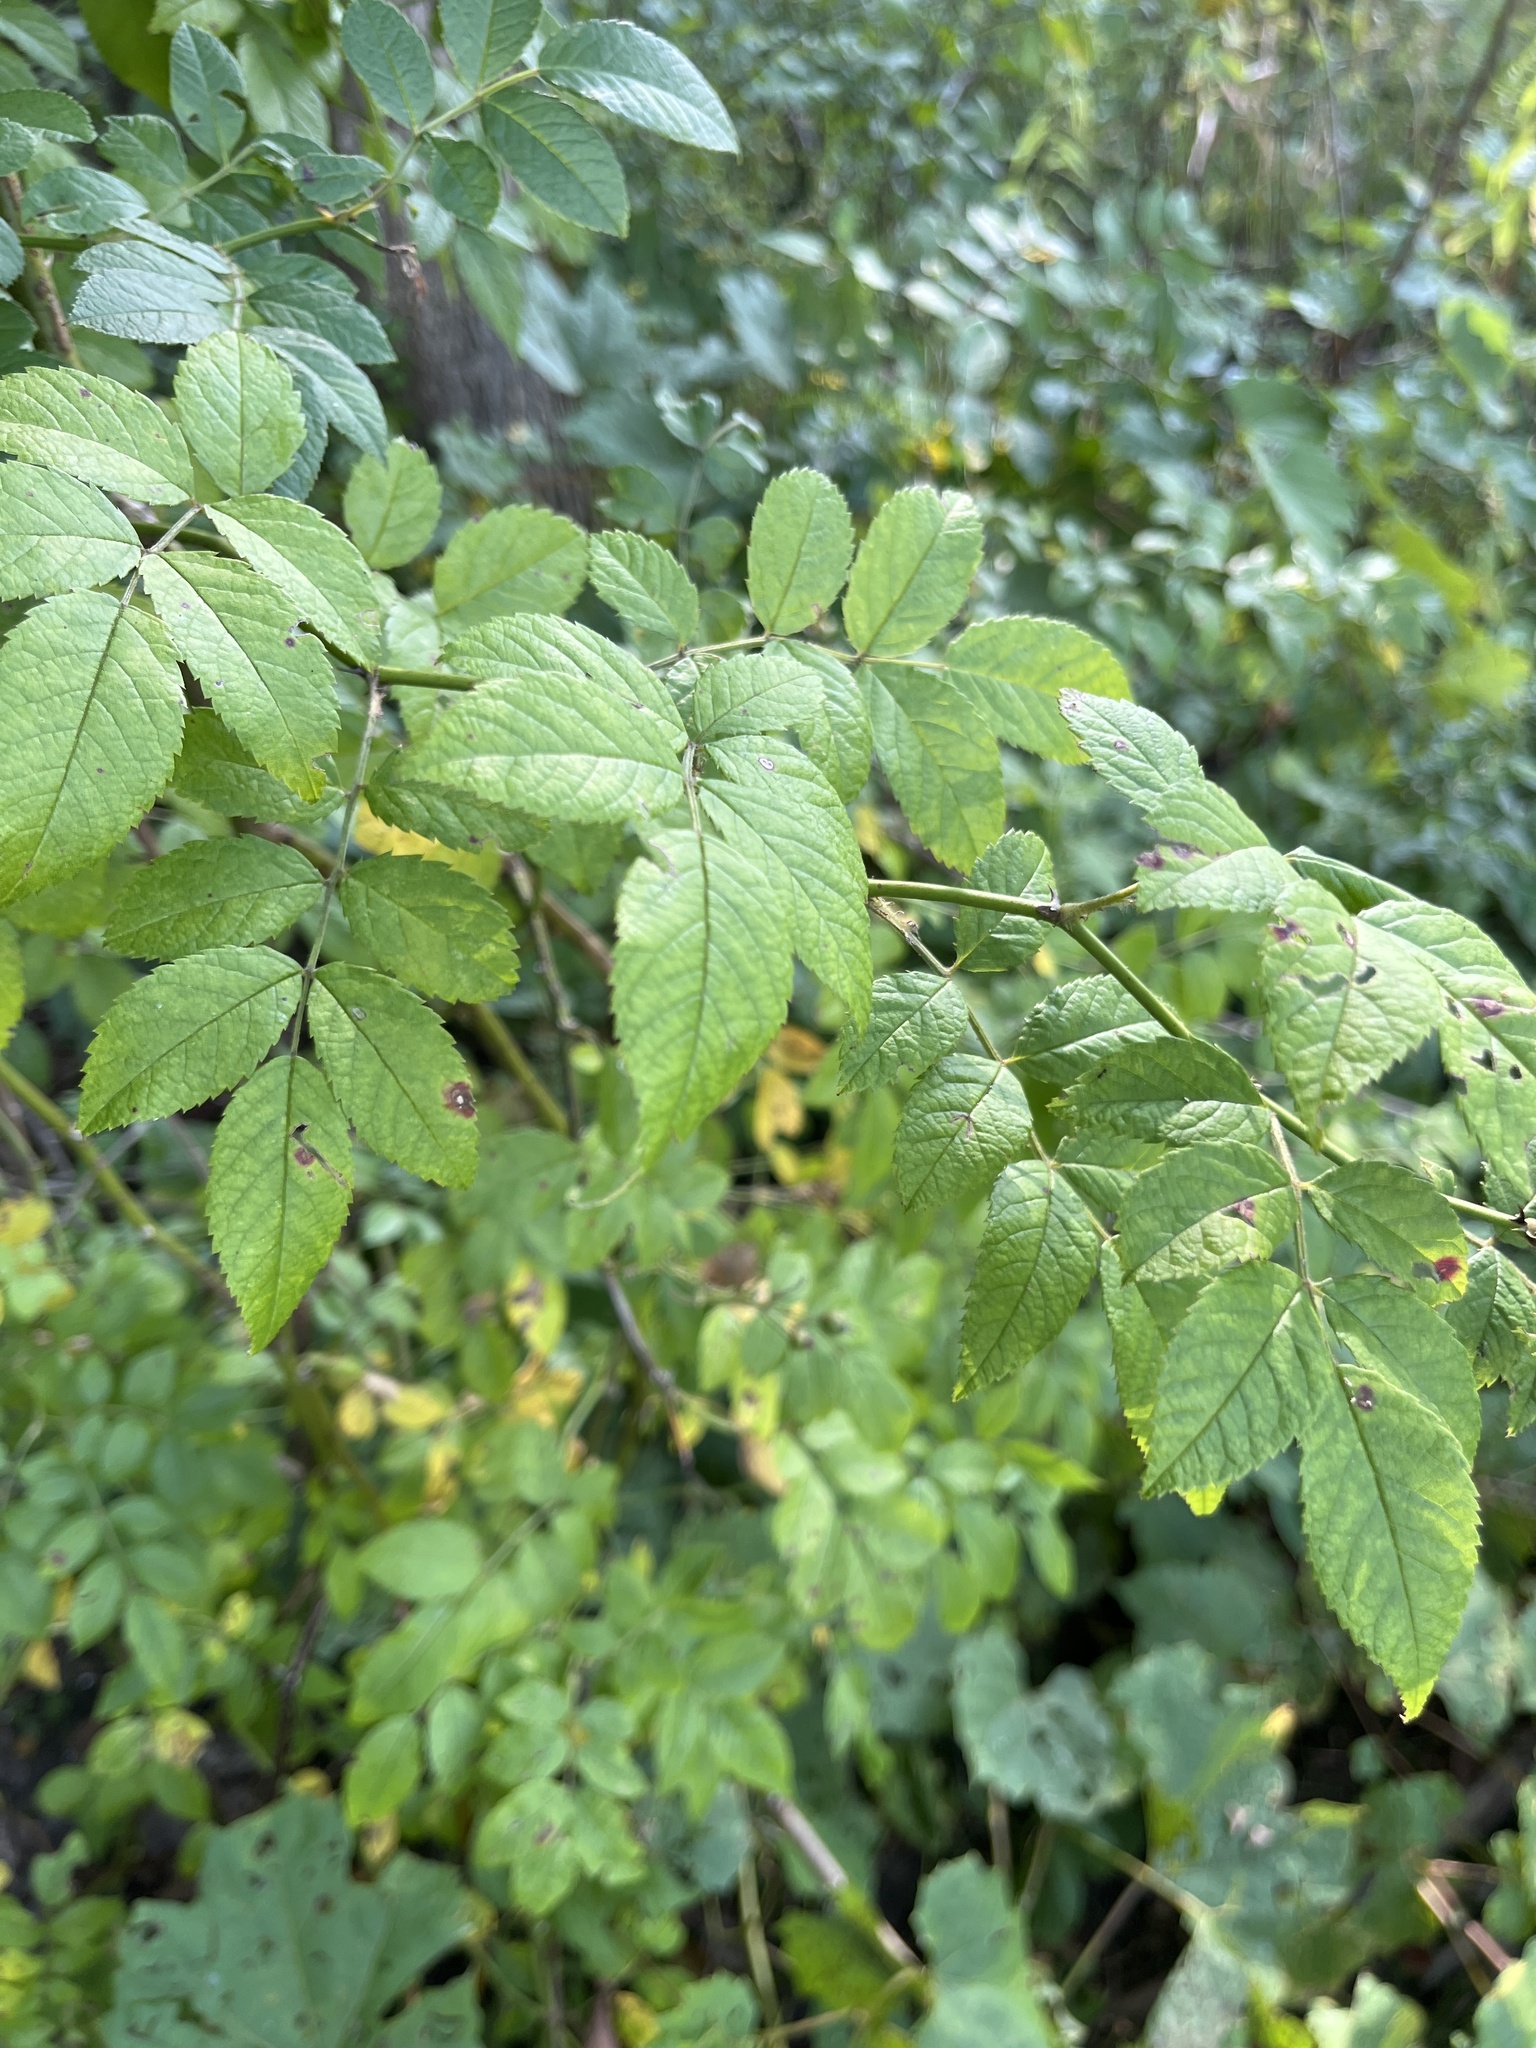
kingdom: Plantae
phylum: Tracheophyta
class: Magnoliopsida
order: Rosales
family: Rosaceae
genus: Rosa
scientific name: Rosa multiflora
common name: Multiflora rose
